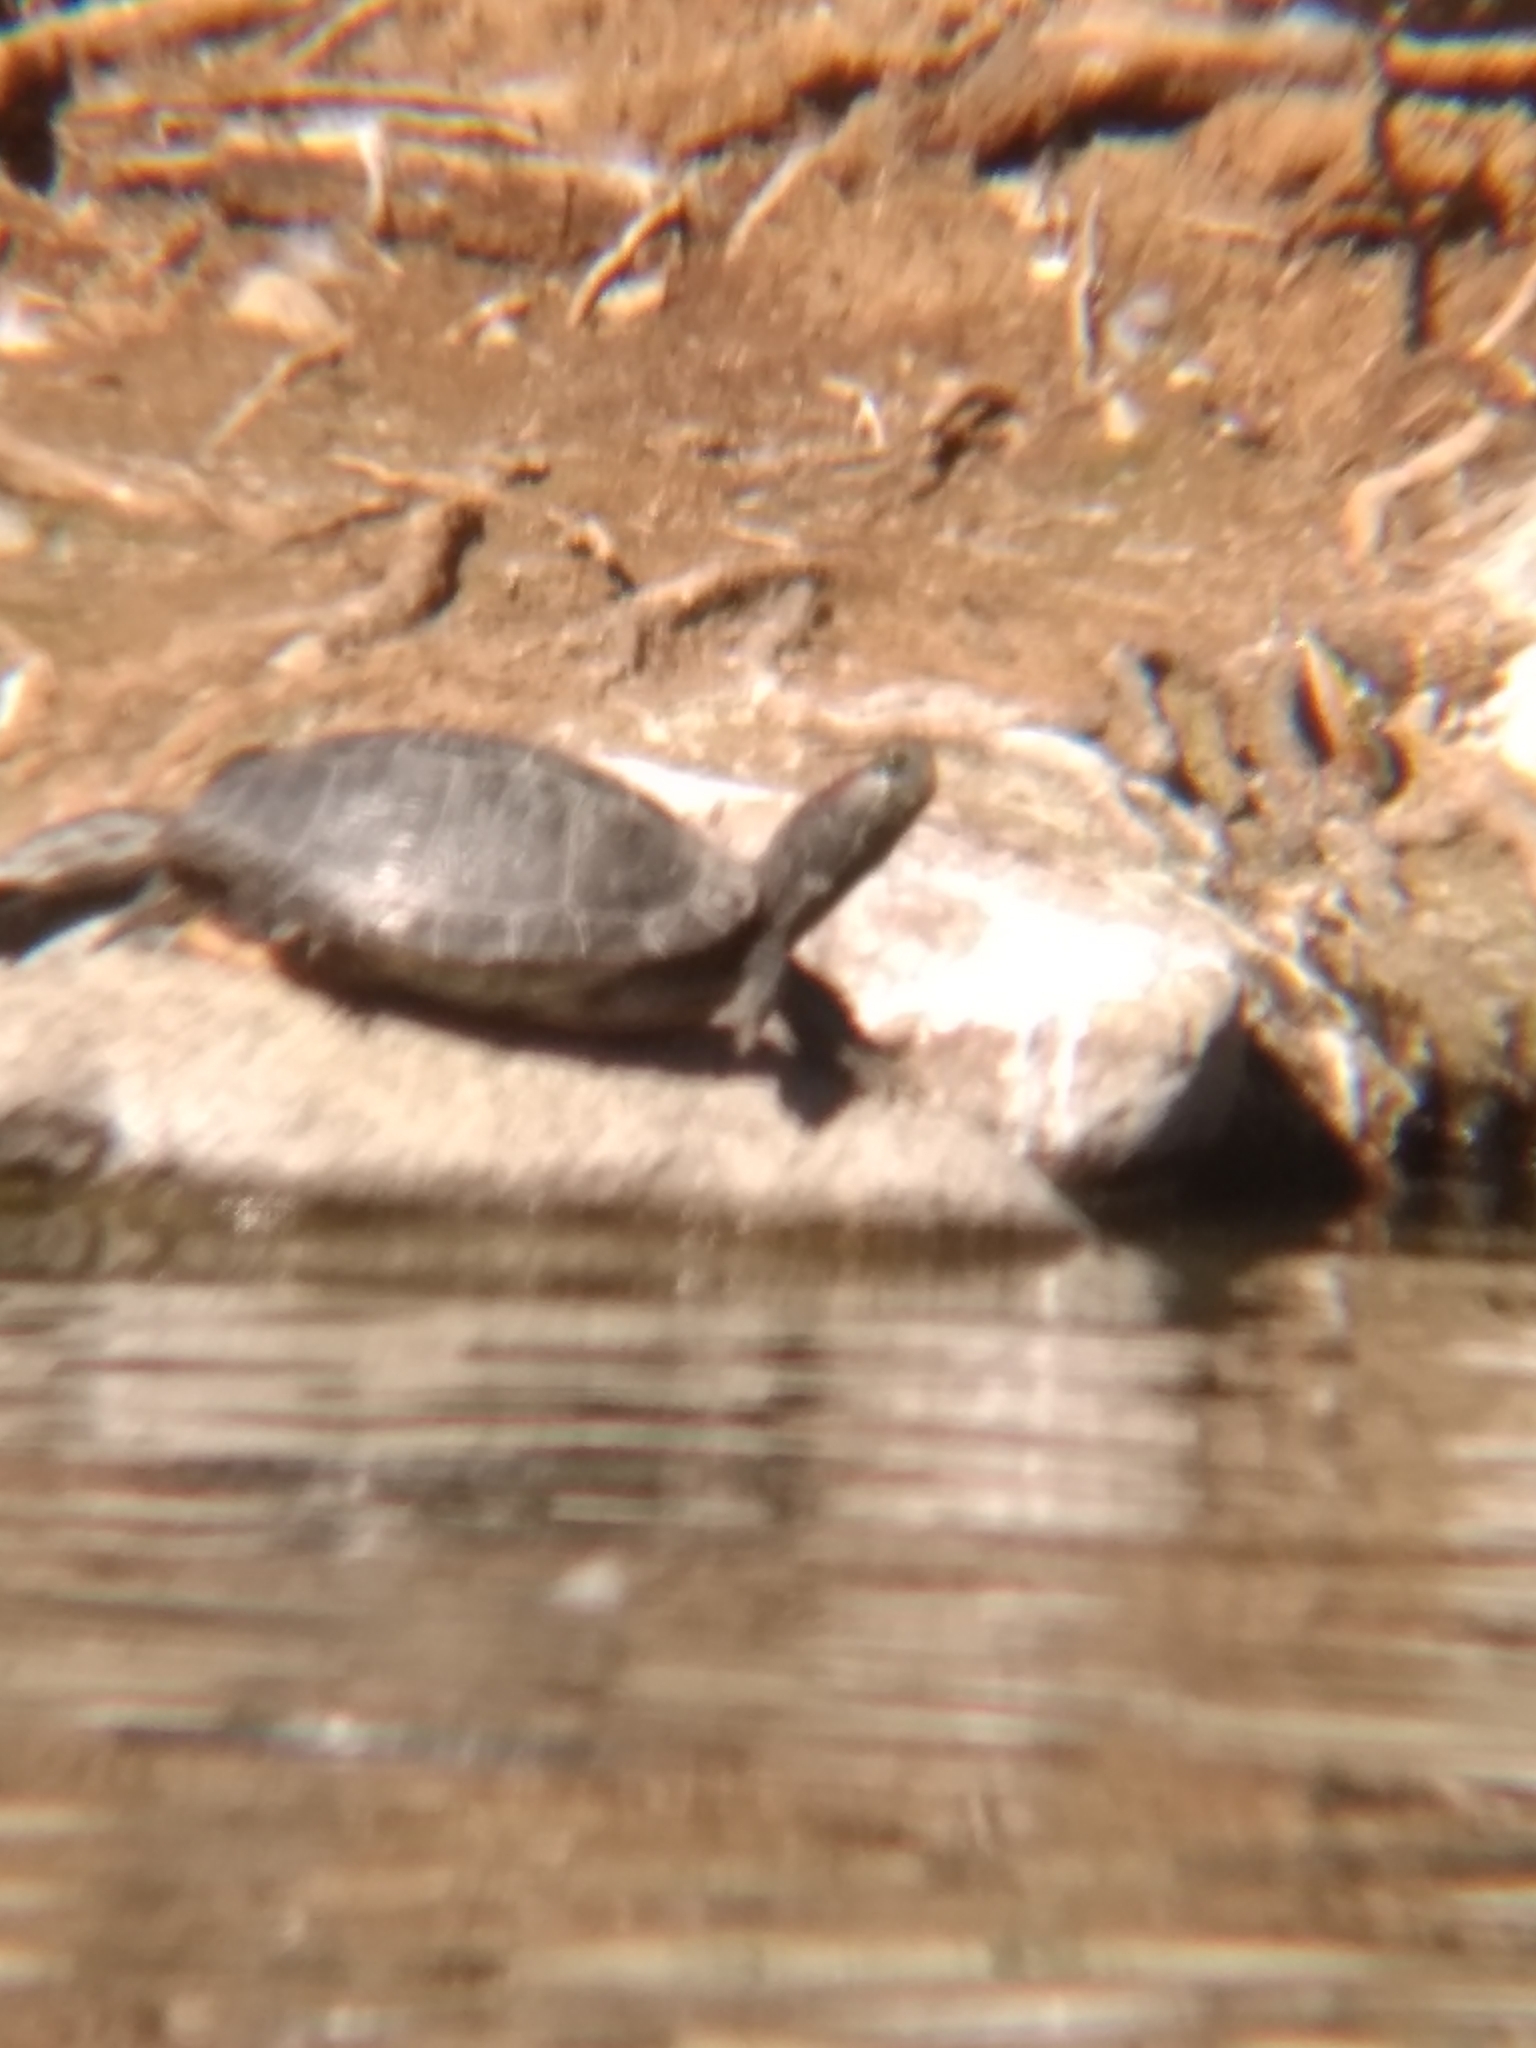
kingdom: Animalia
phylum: Chordata
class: Testudines
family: Emydidae
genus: Trachemys
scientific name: Trachemys scripta
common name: Slider
